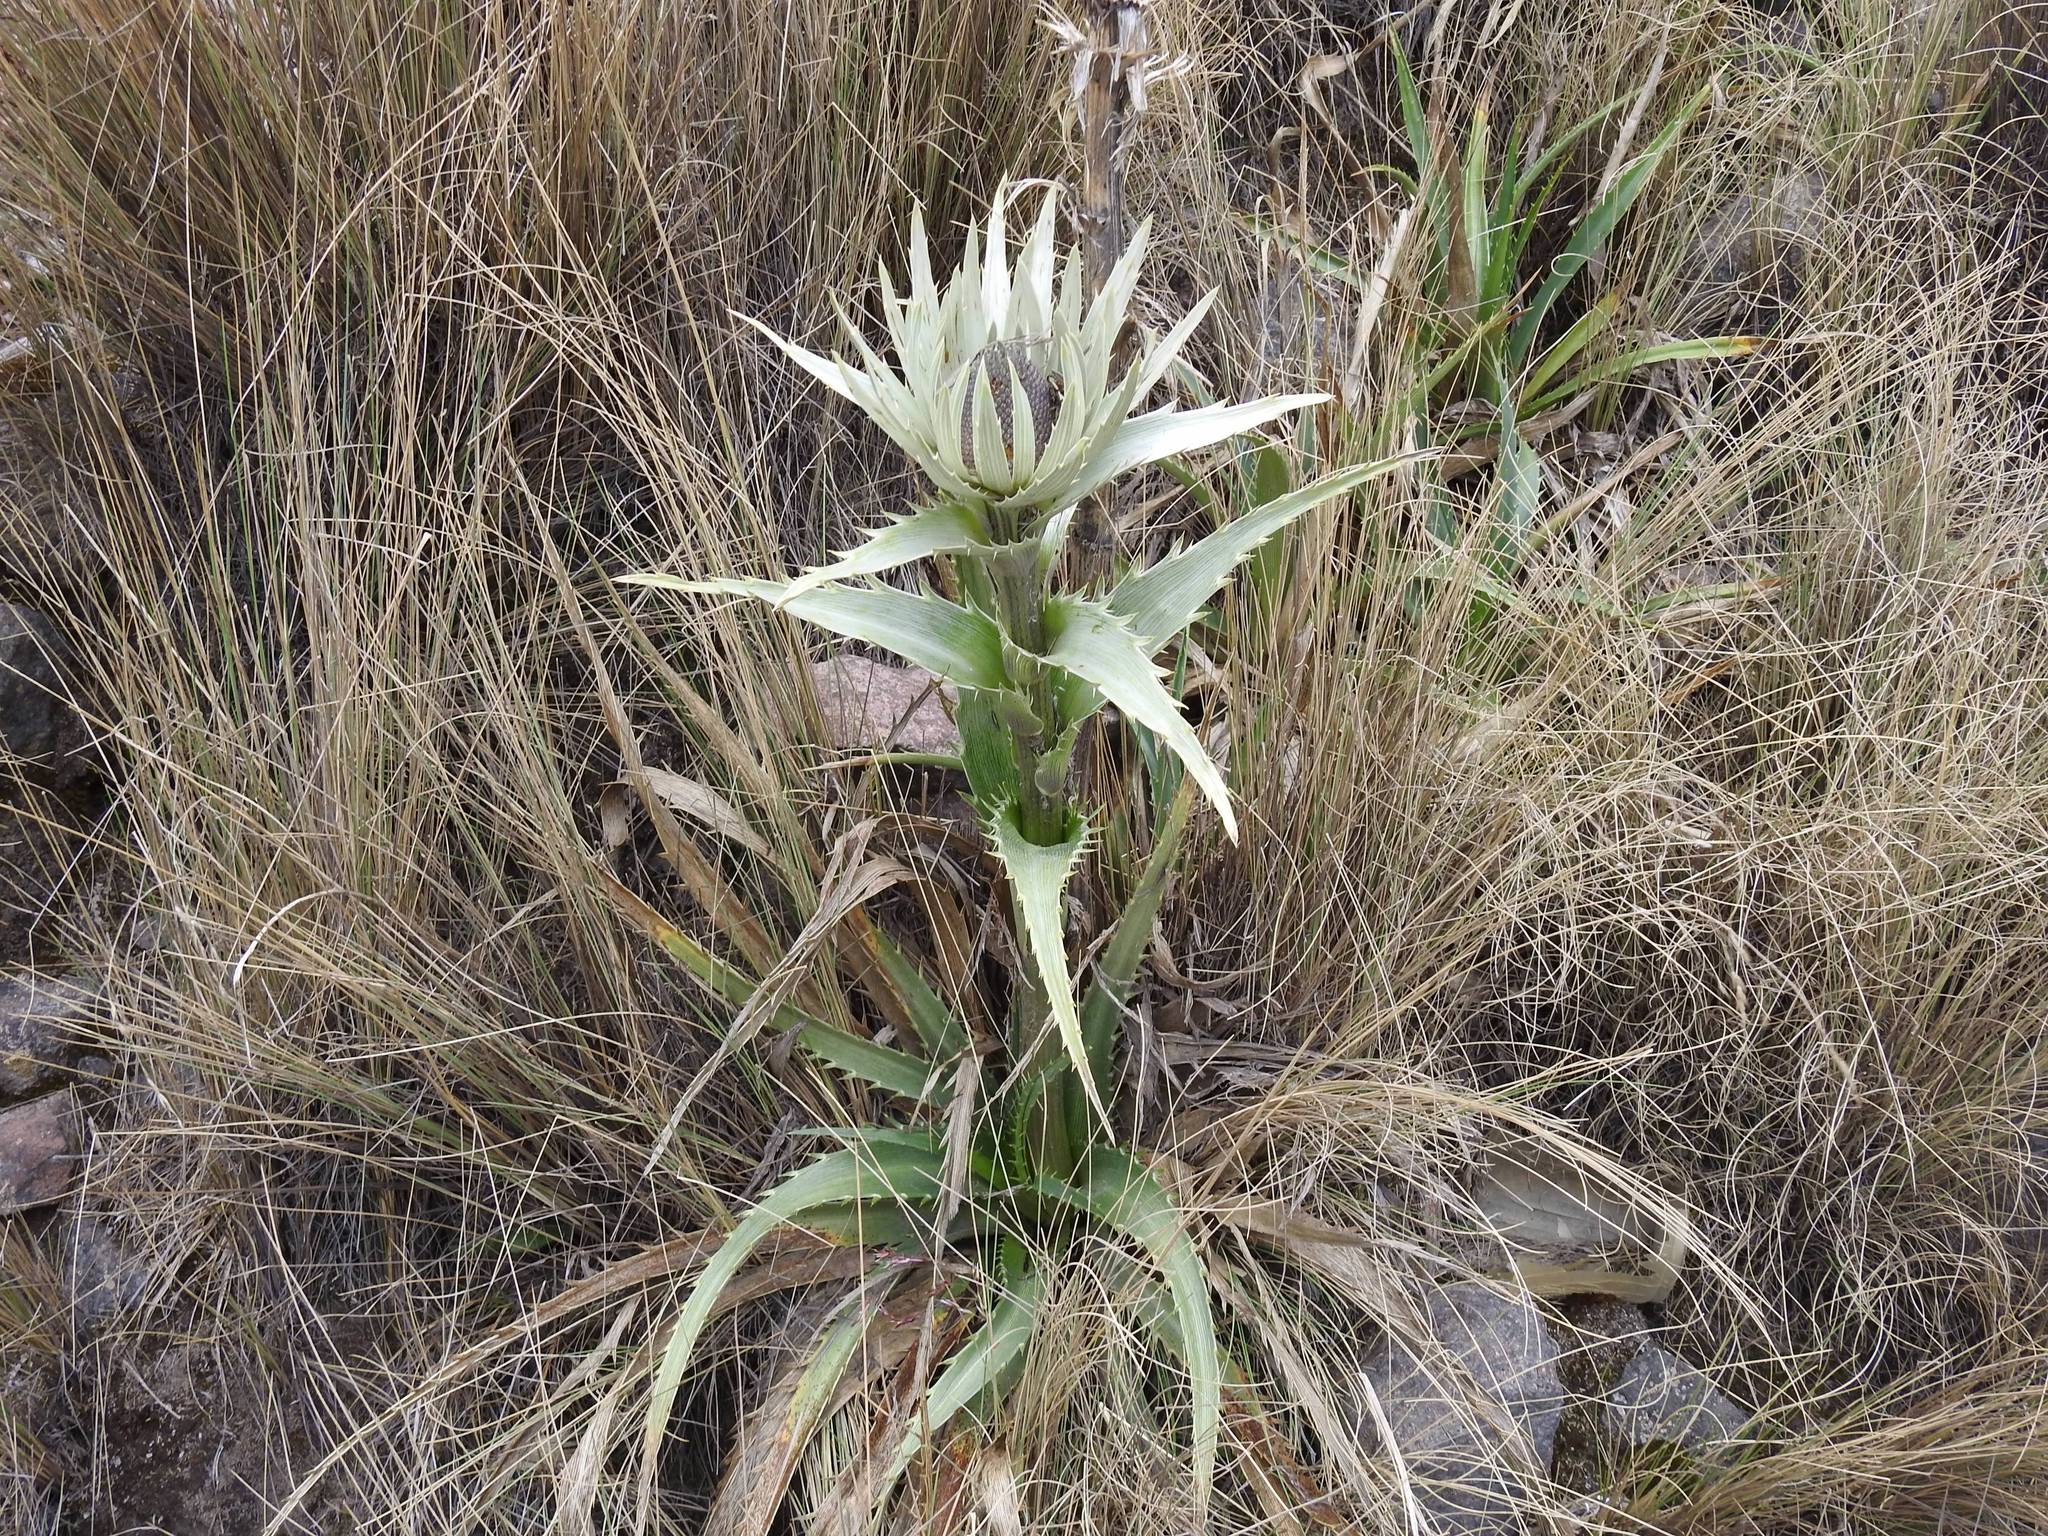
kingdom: Plantae
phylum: Tracheophyta
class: Magnoliopsida
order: Apiales
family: Apiaceae
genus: Eryngium
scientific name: Eryngium proteiflorum
